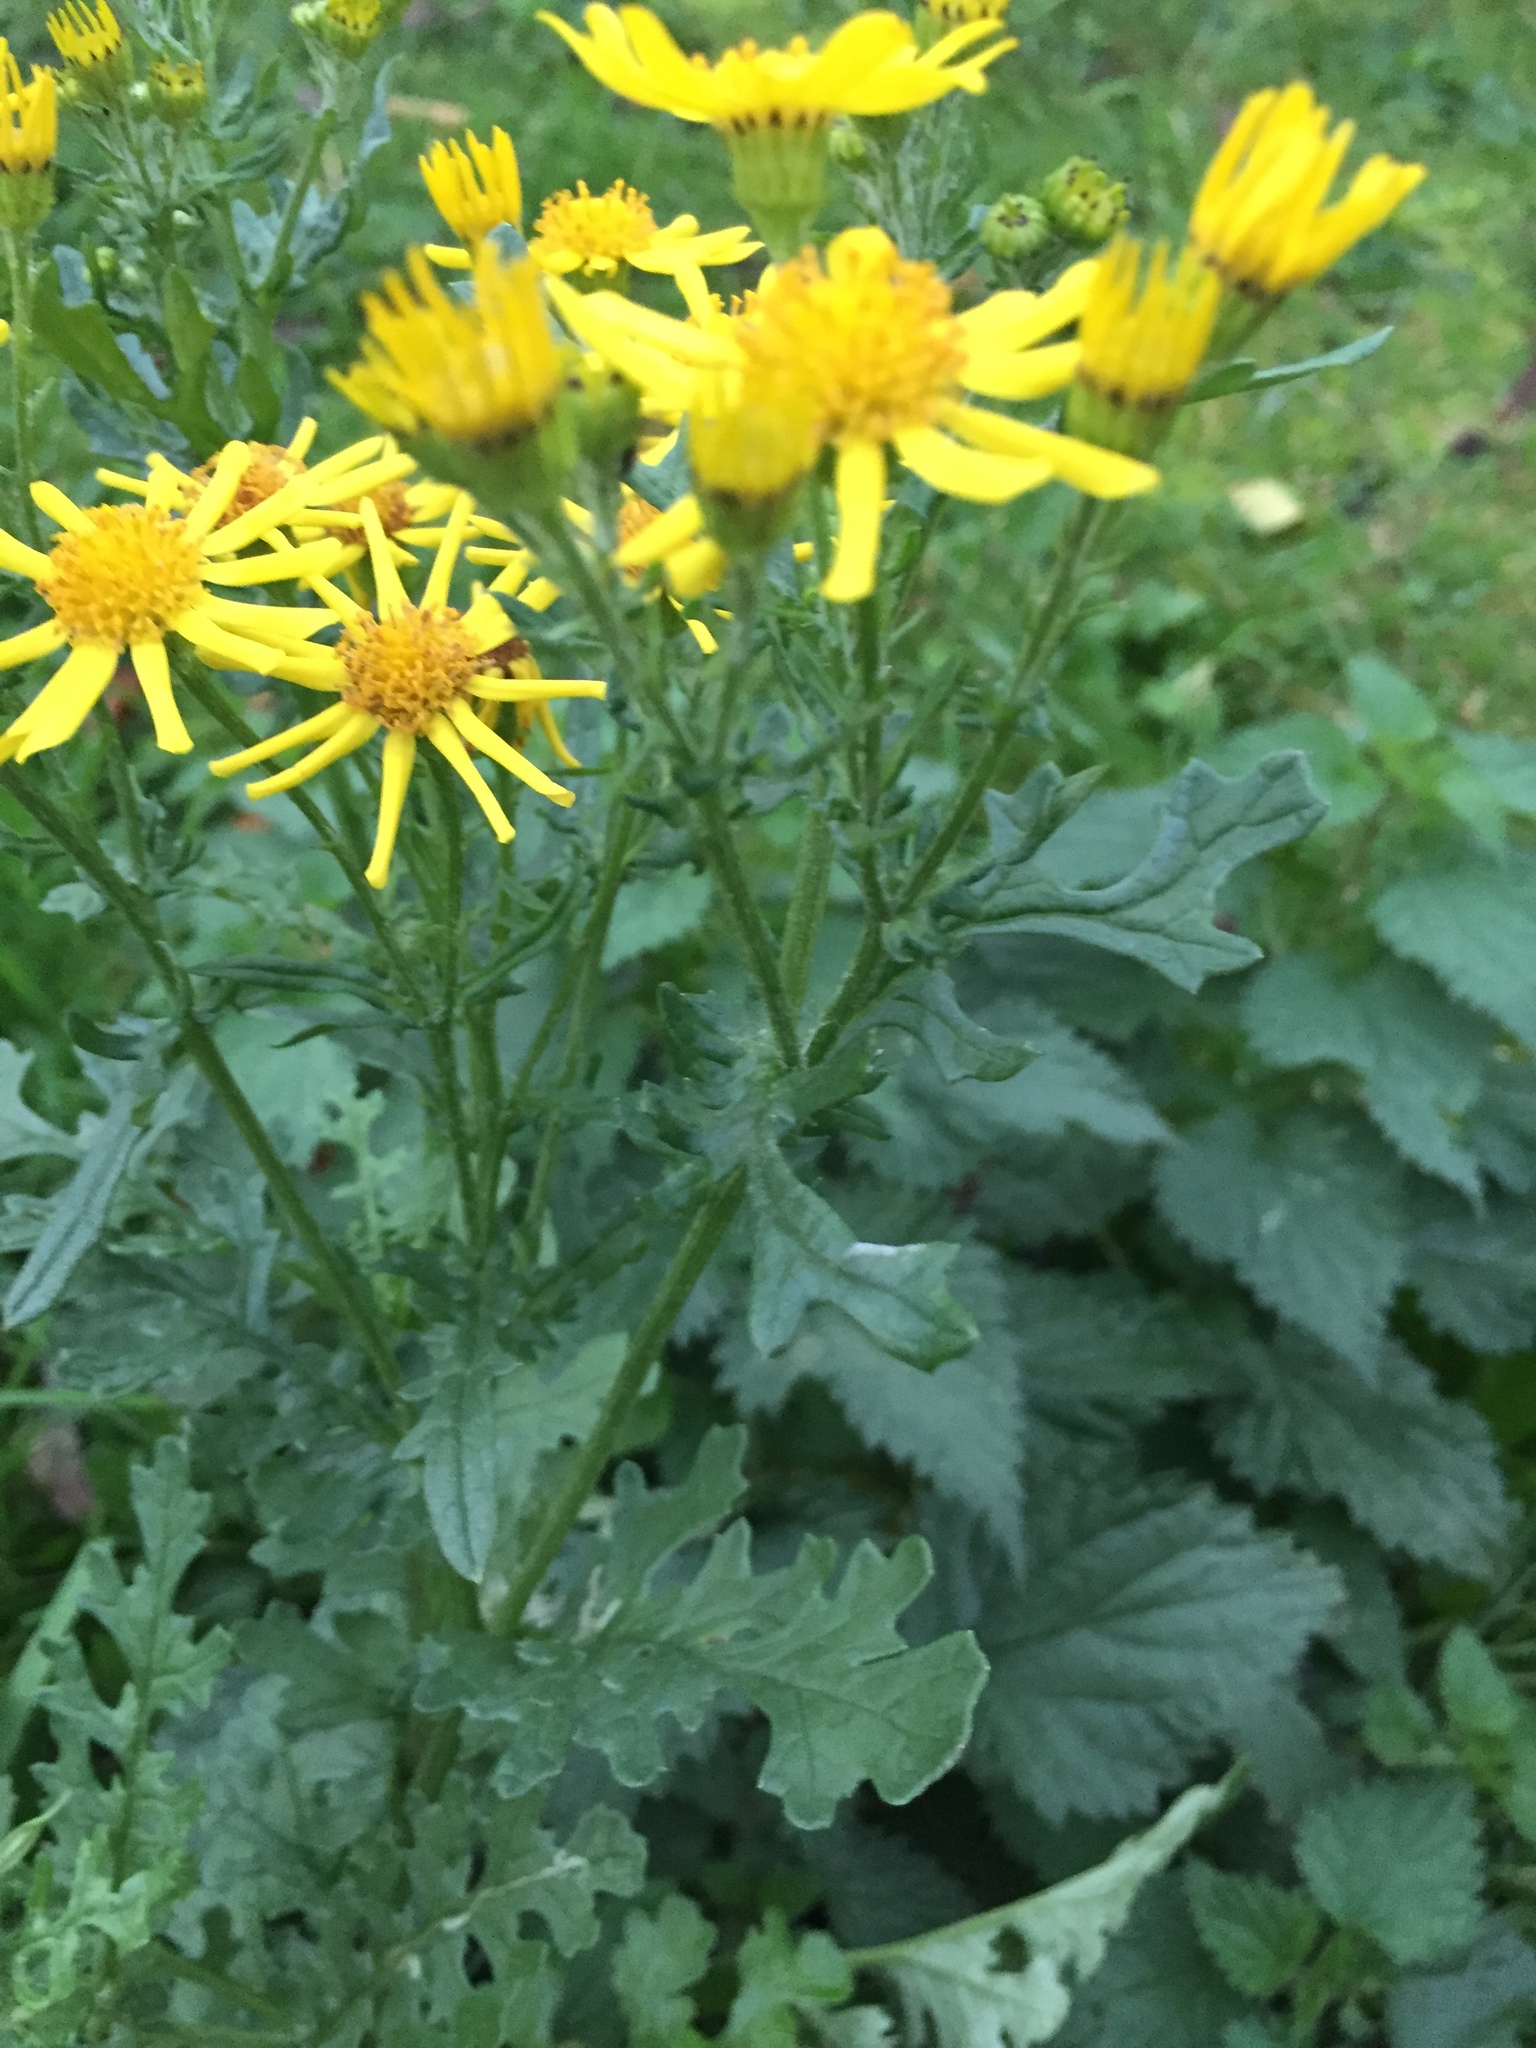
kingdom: Plantae
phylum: Tracheophyta
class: Magnoliopsida
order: Asterales
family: Asteraceae
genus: Jacobaea
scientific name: Jacobaea vulgaris
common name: Stinking willie
